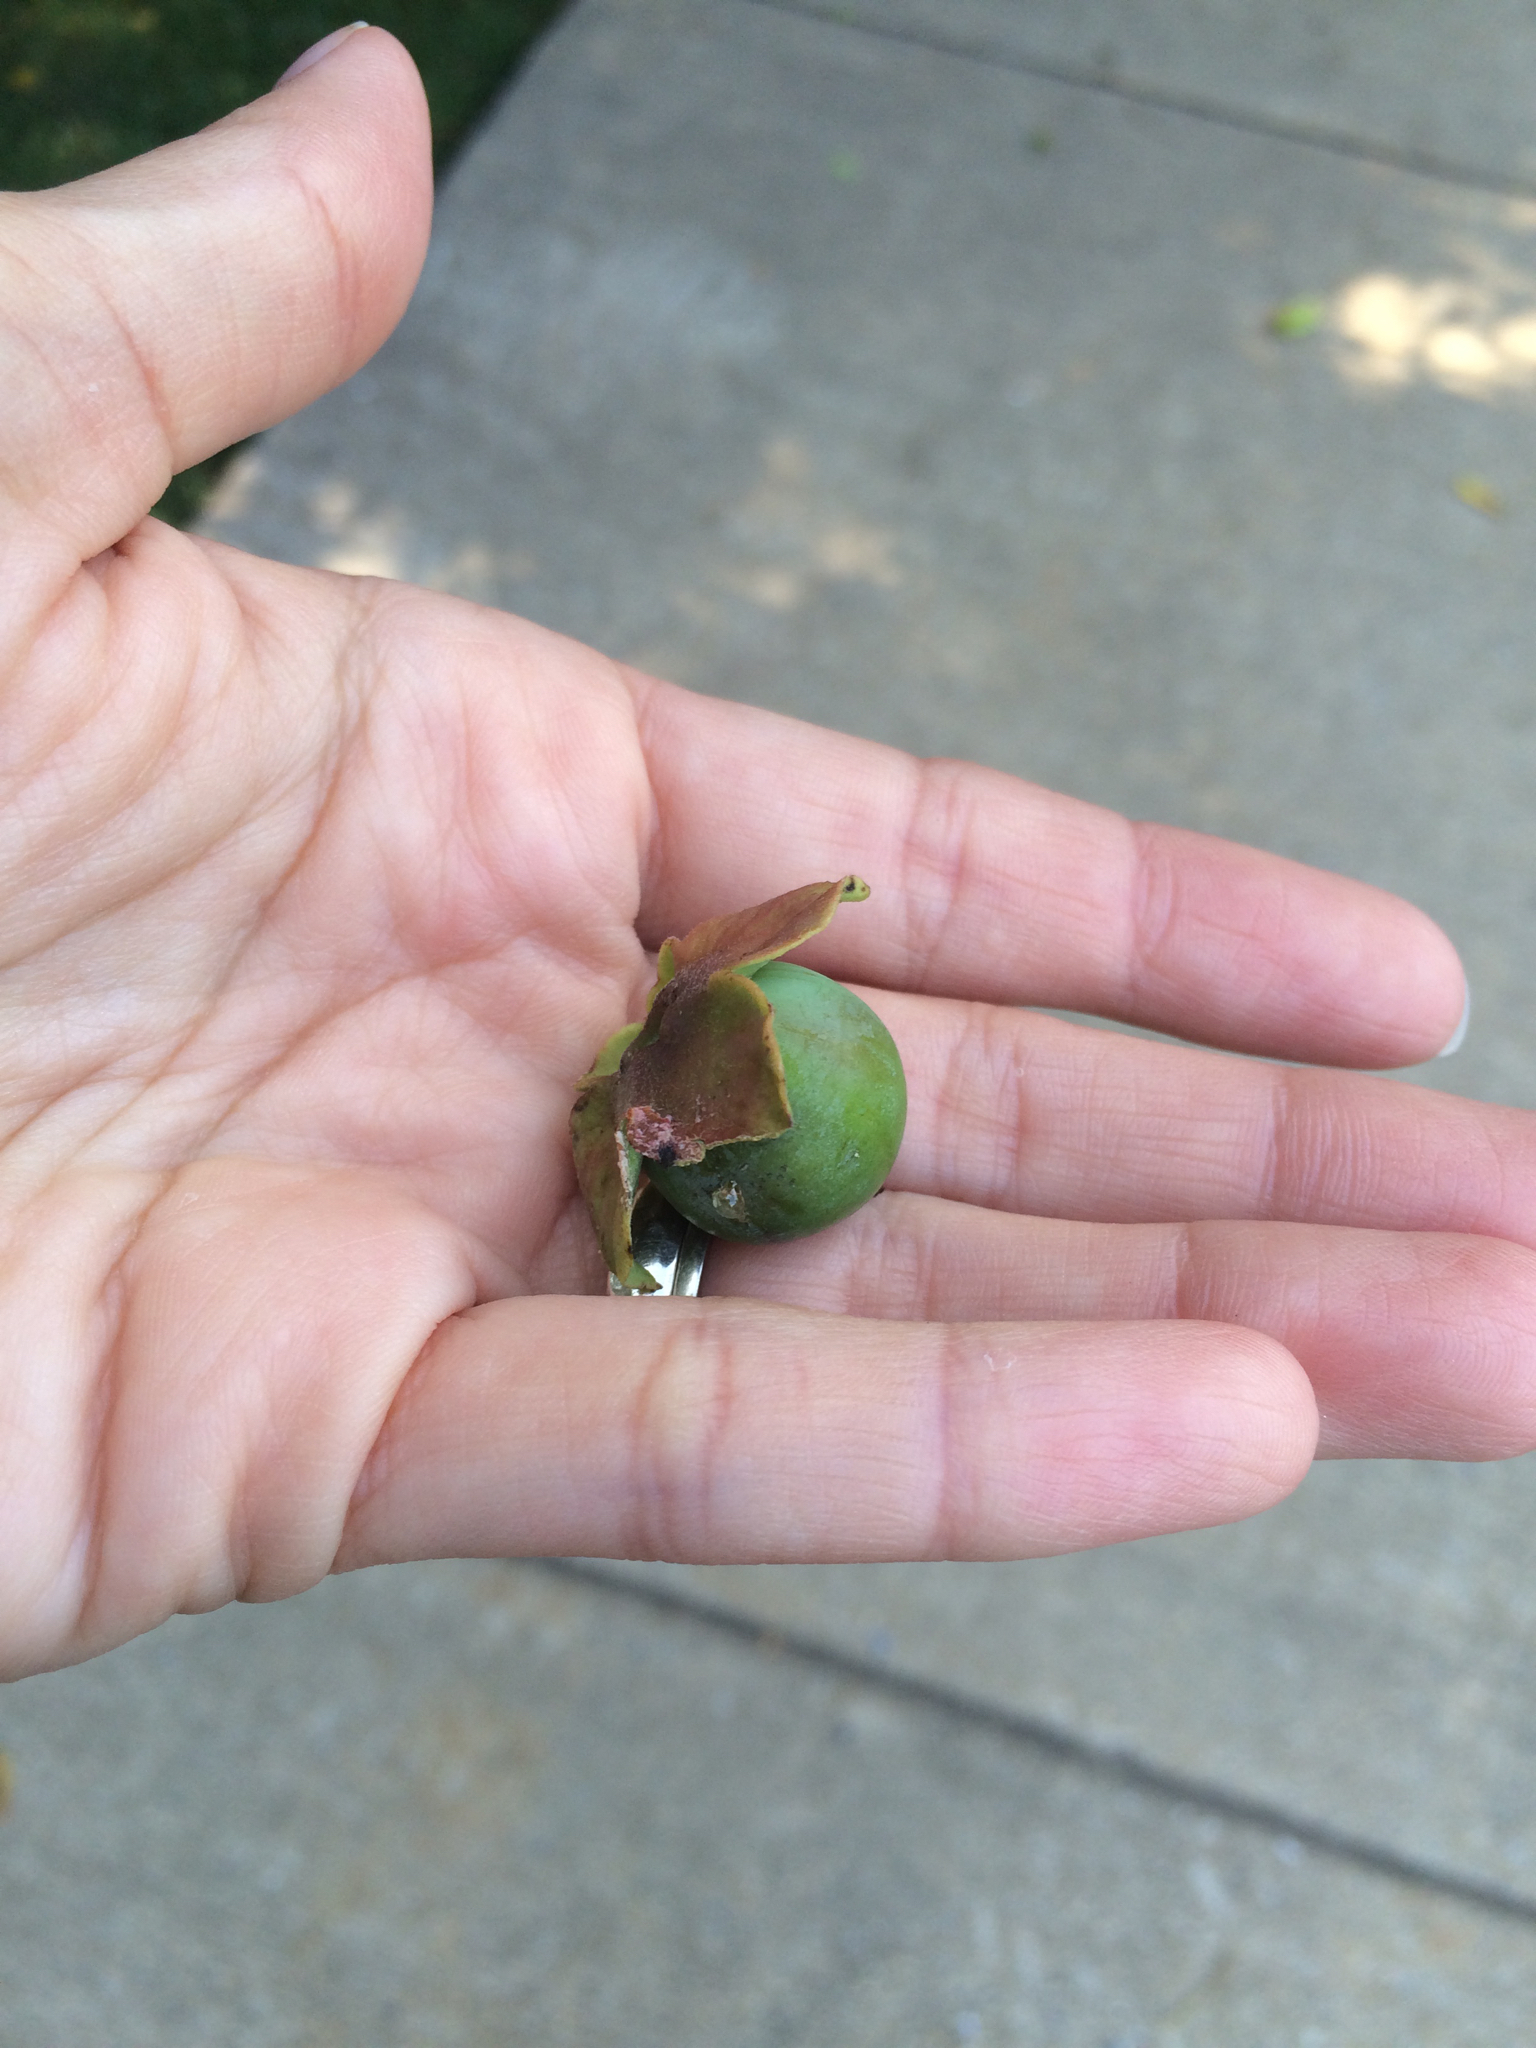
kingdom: Plantae
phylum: Tracheophyta
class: Magnoliopsida
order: Ericales
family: Ebenaceae
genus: Diospyros
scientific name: Diospyros virginiana
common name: Persimmon
